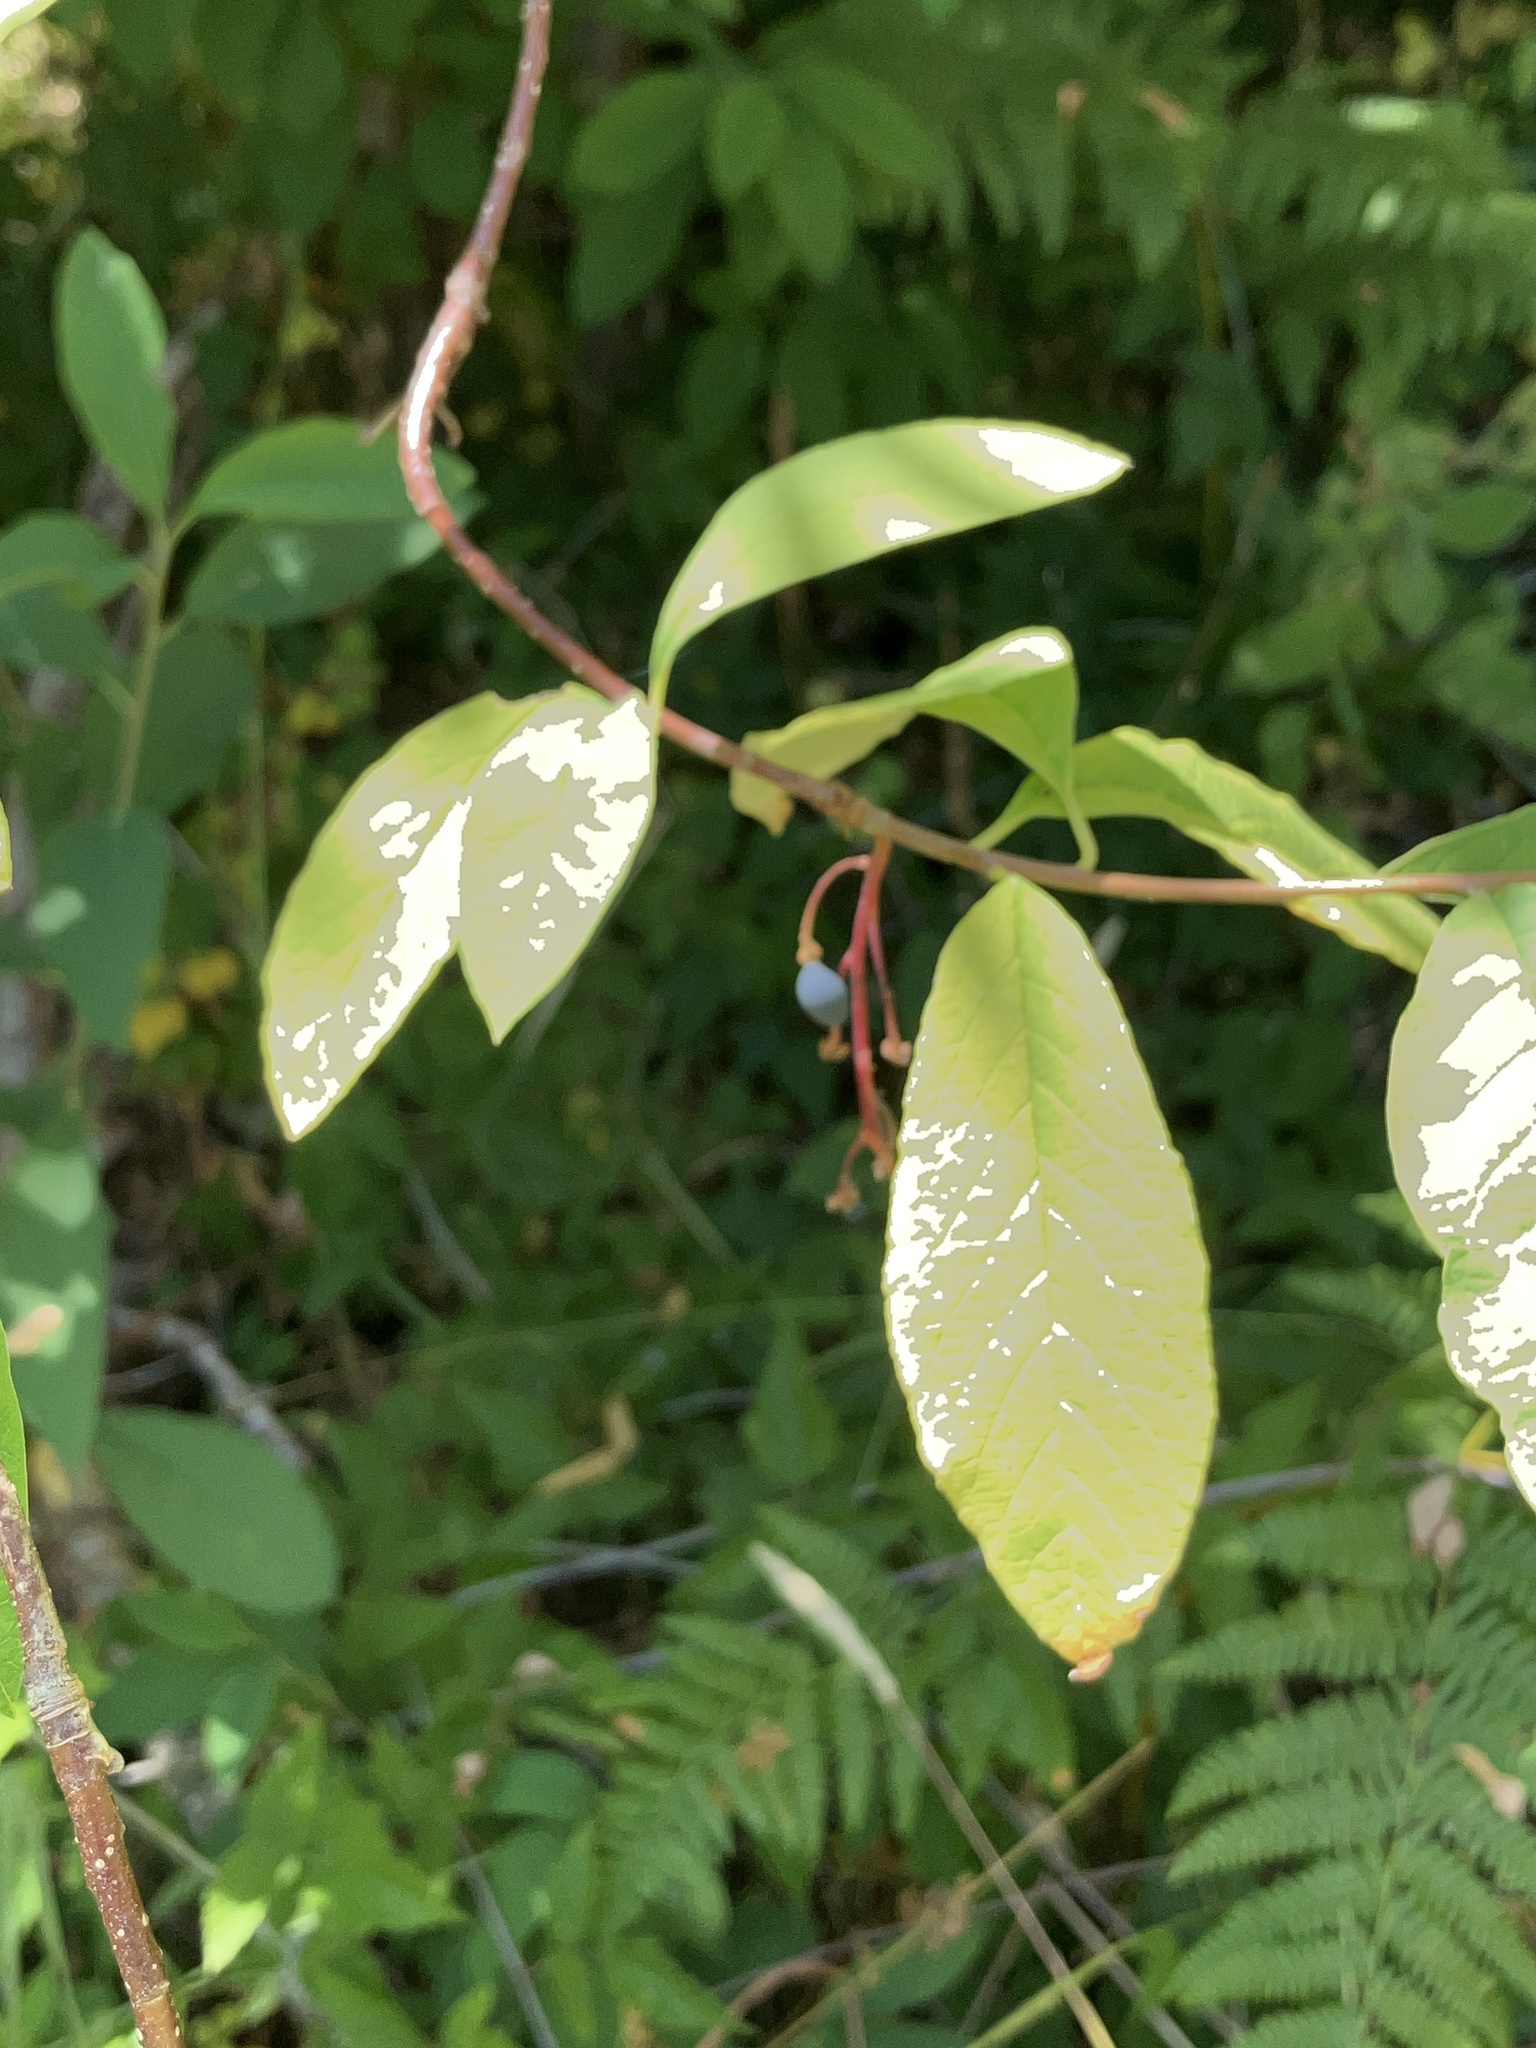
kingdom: Plantae
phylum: Tracheophyta
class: Magnoliopsida
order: Rosales
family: Rosaceae
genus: Oemleria
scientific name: Oemleria cerasiformis
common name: Osoberry
